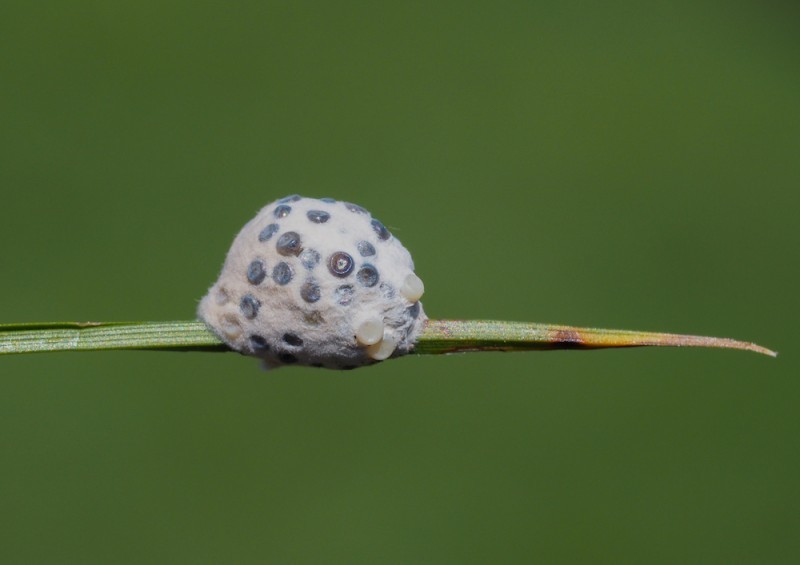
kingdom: Animalia
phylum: Arthropoda
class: Insecta
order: Lepidoptera
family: Erebidae
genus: Penthophera
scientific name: Penthophera morio
